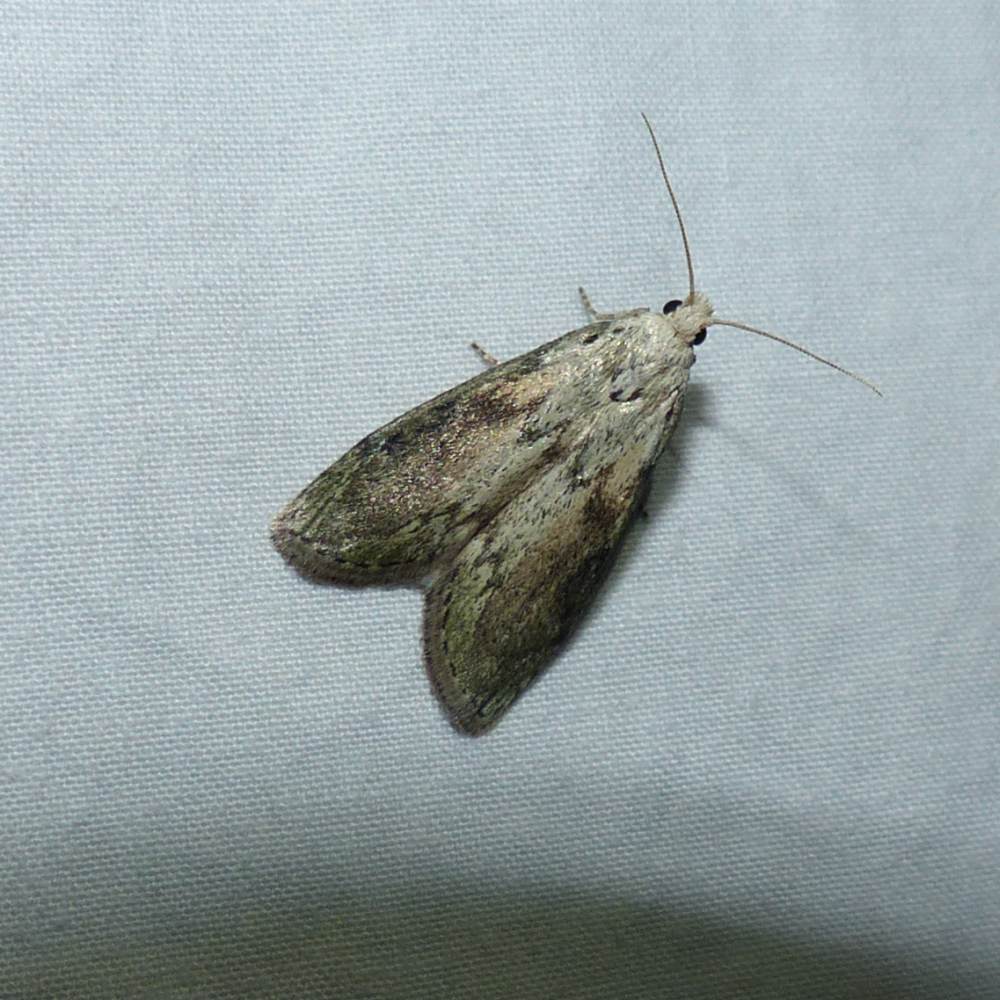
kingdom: Animalia
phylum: Arthropoda
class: Insecta
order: Lepidoptera
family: Pyralidae
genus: Aphomia
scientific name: Aphomia sociella
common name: Bee moth
